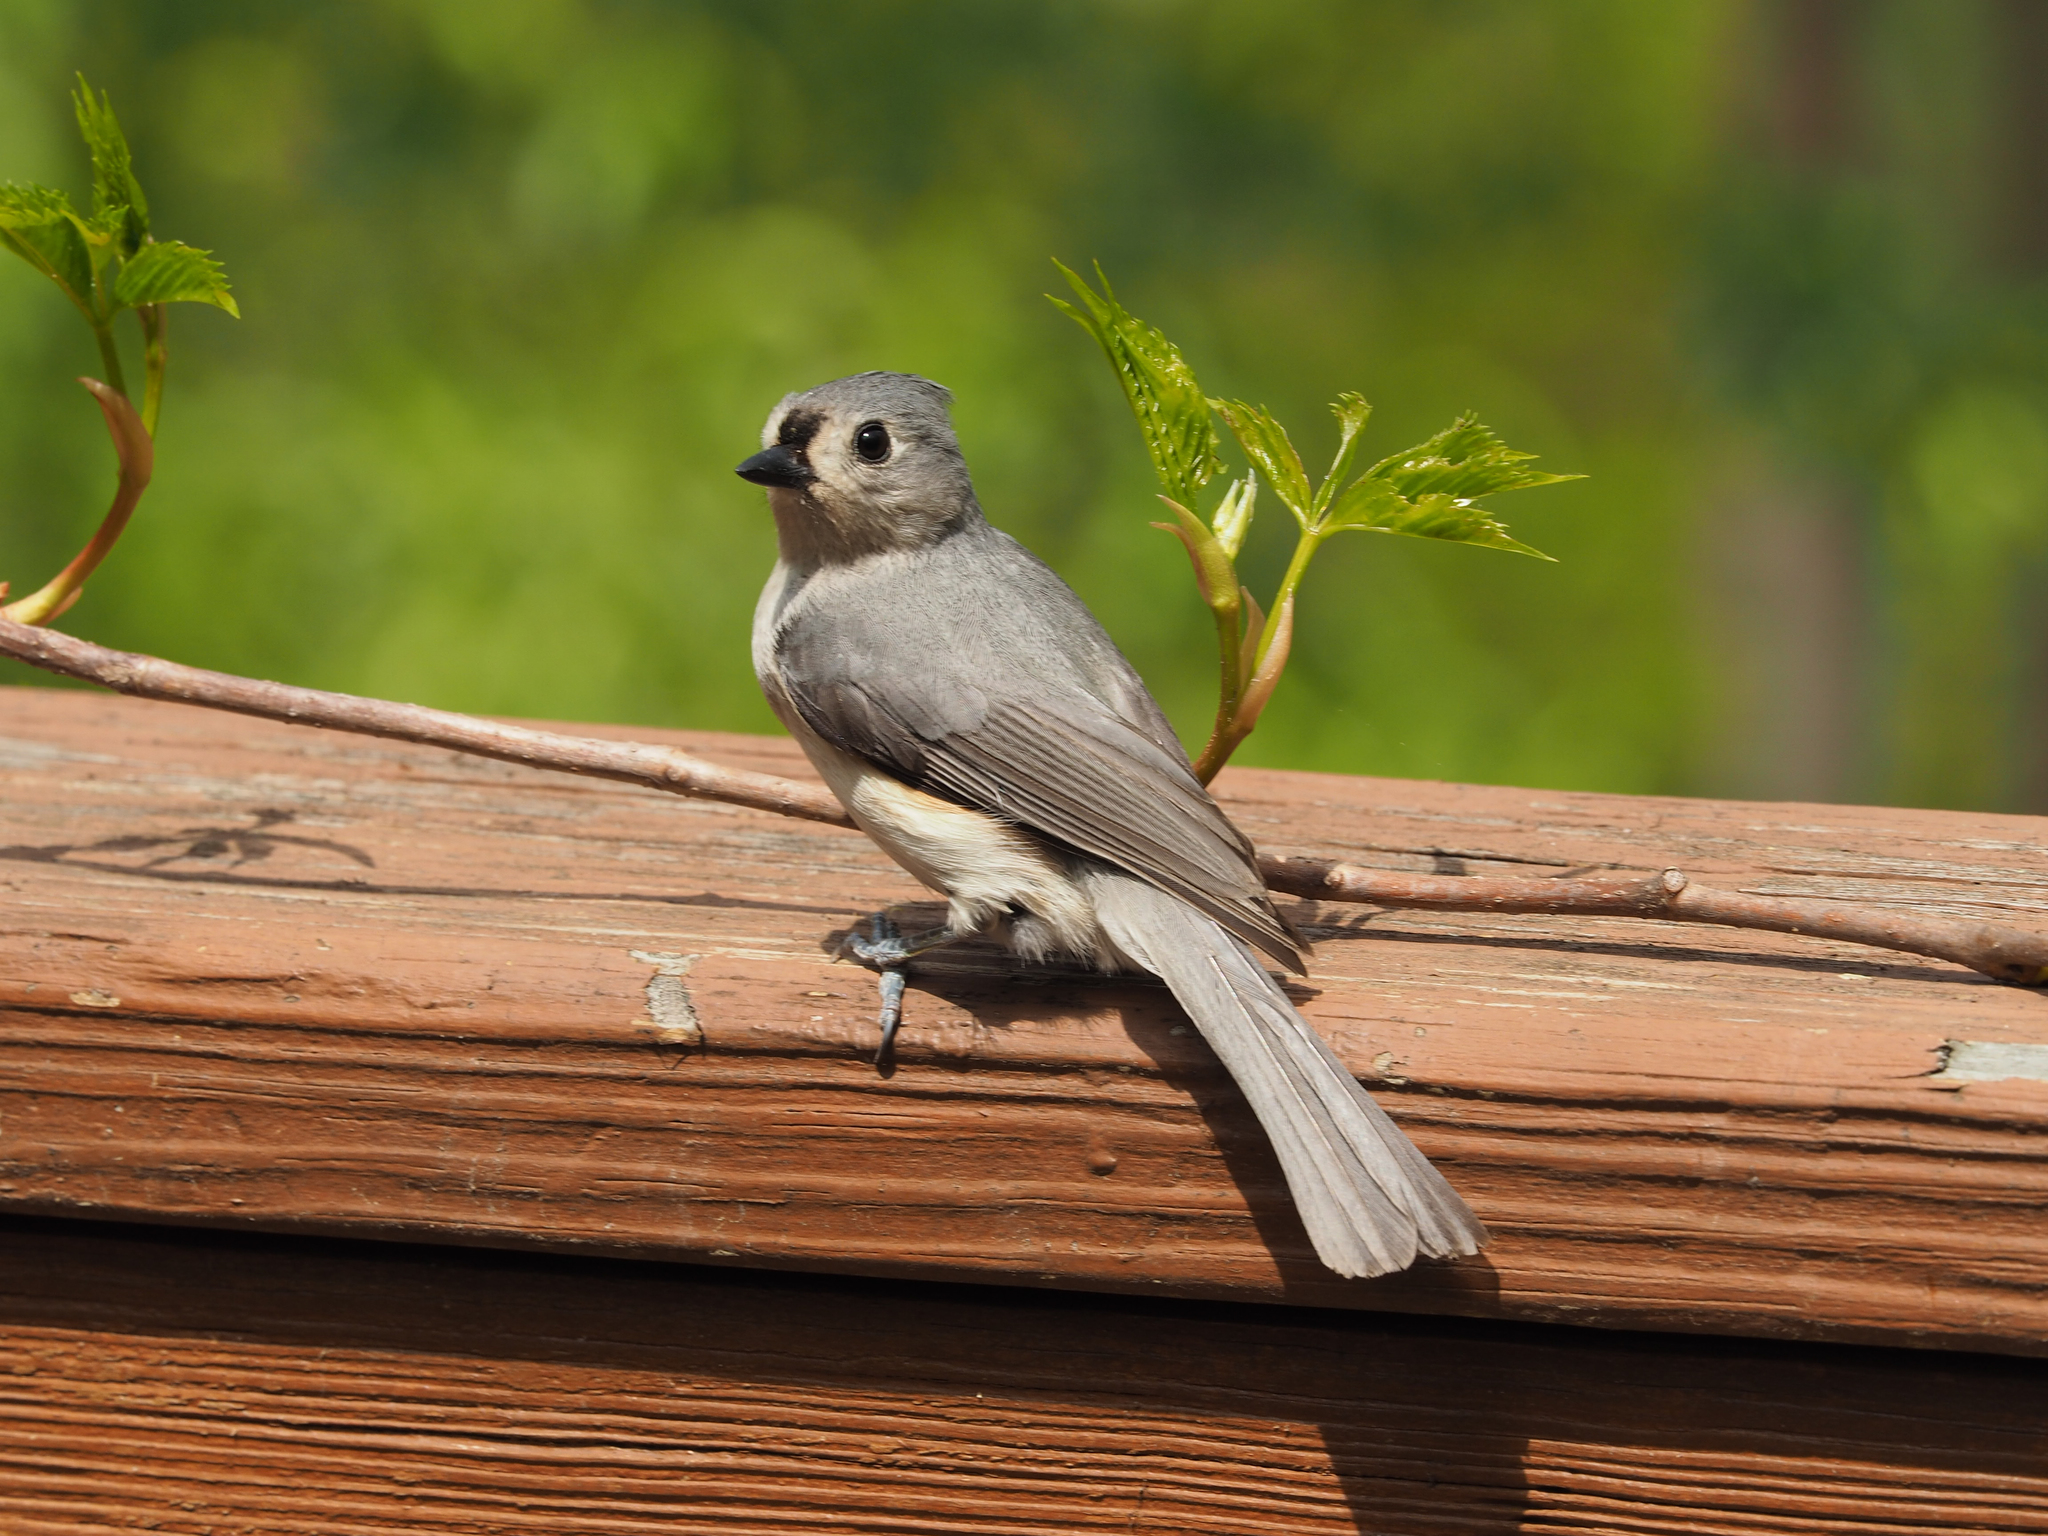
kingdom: Animalia
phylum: Chordata
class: Aves
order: Passeriformes
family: Paridae
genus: Baeolophus
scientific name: Baeolophus bicolor
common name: Tufted titmouse
